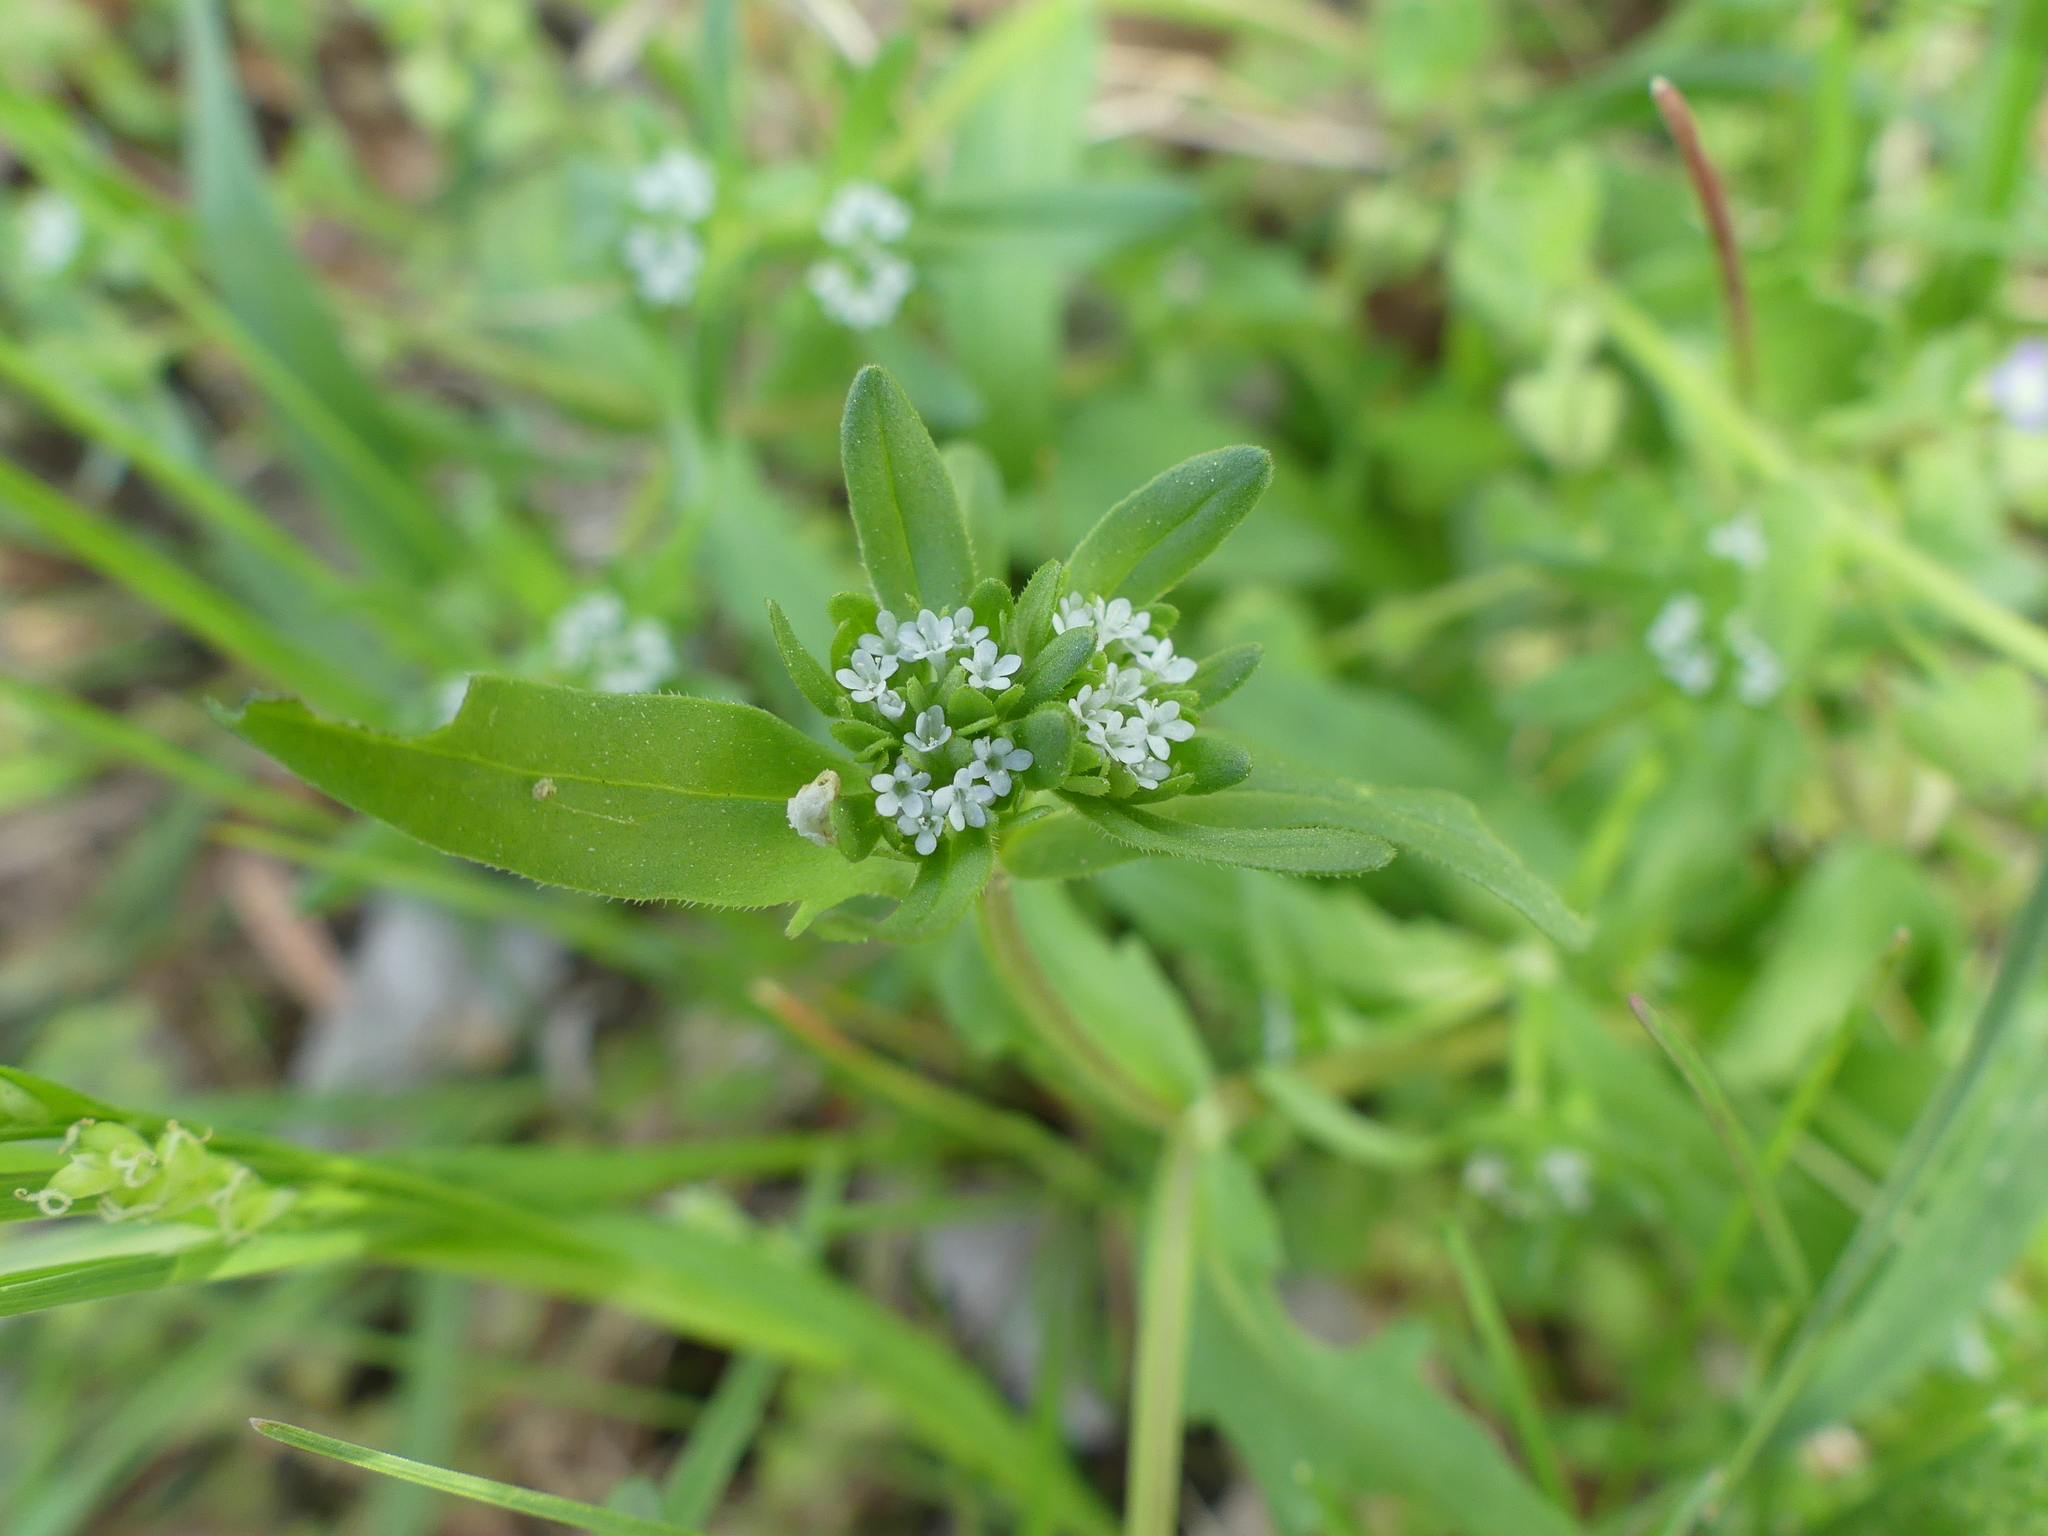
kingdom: Plantae
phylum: Tracheophyta
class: Magnoliopsida
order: Dipsacales
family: Caprifoliaceae
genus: Valerianella
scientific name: Valerianella locusta
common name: Common cornsalad
